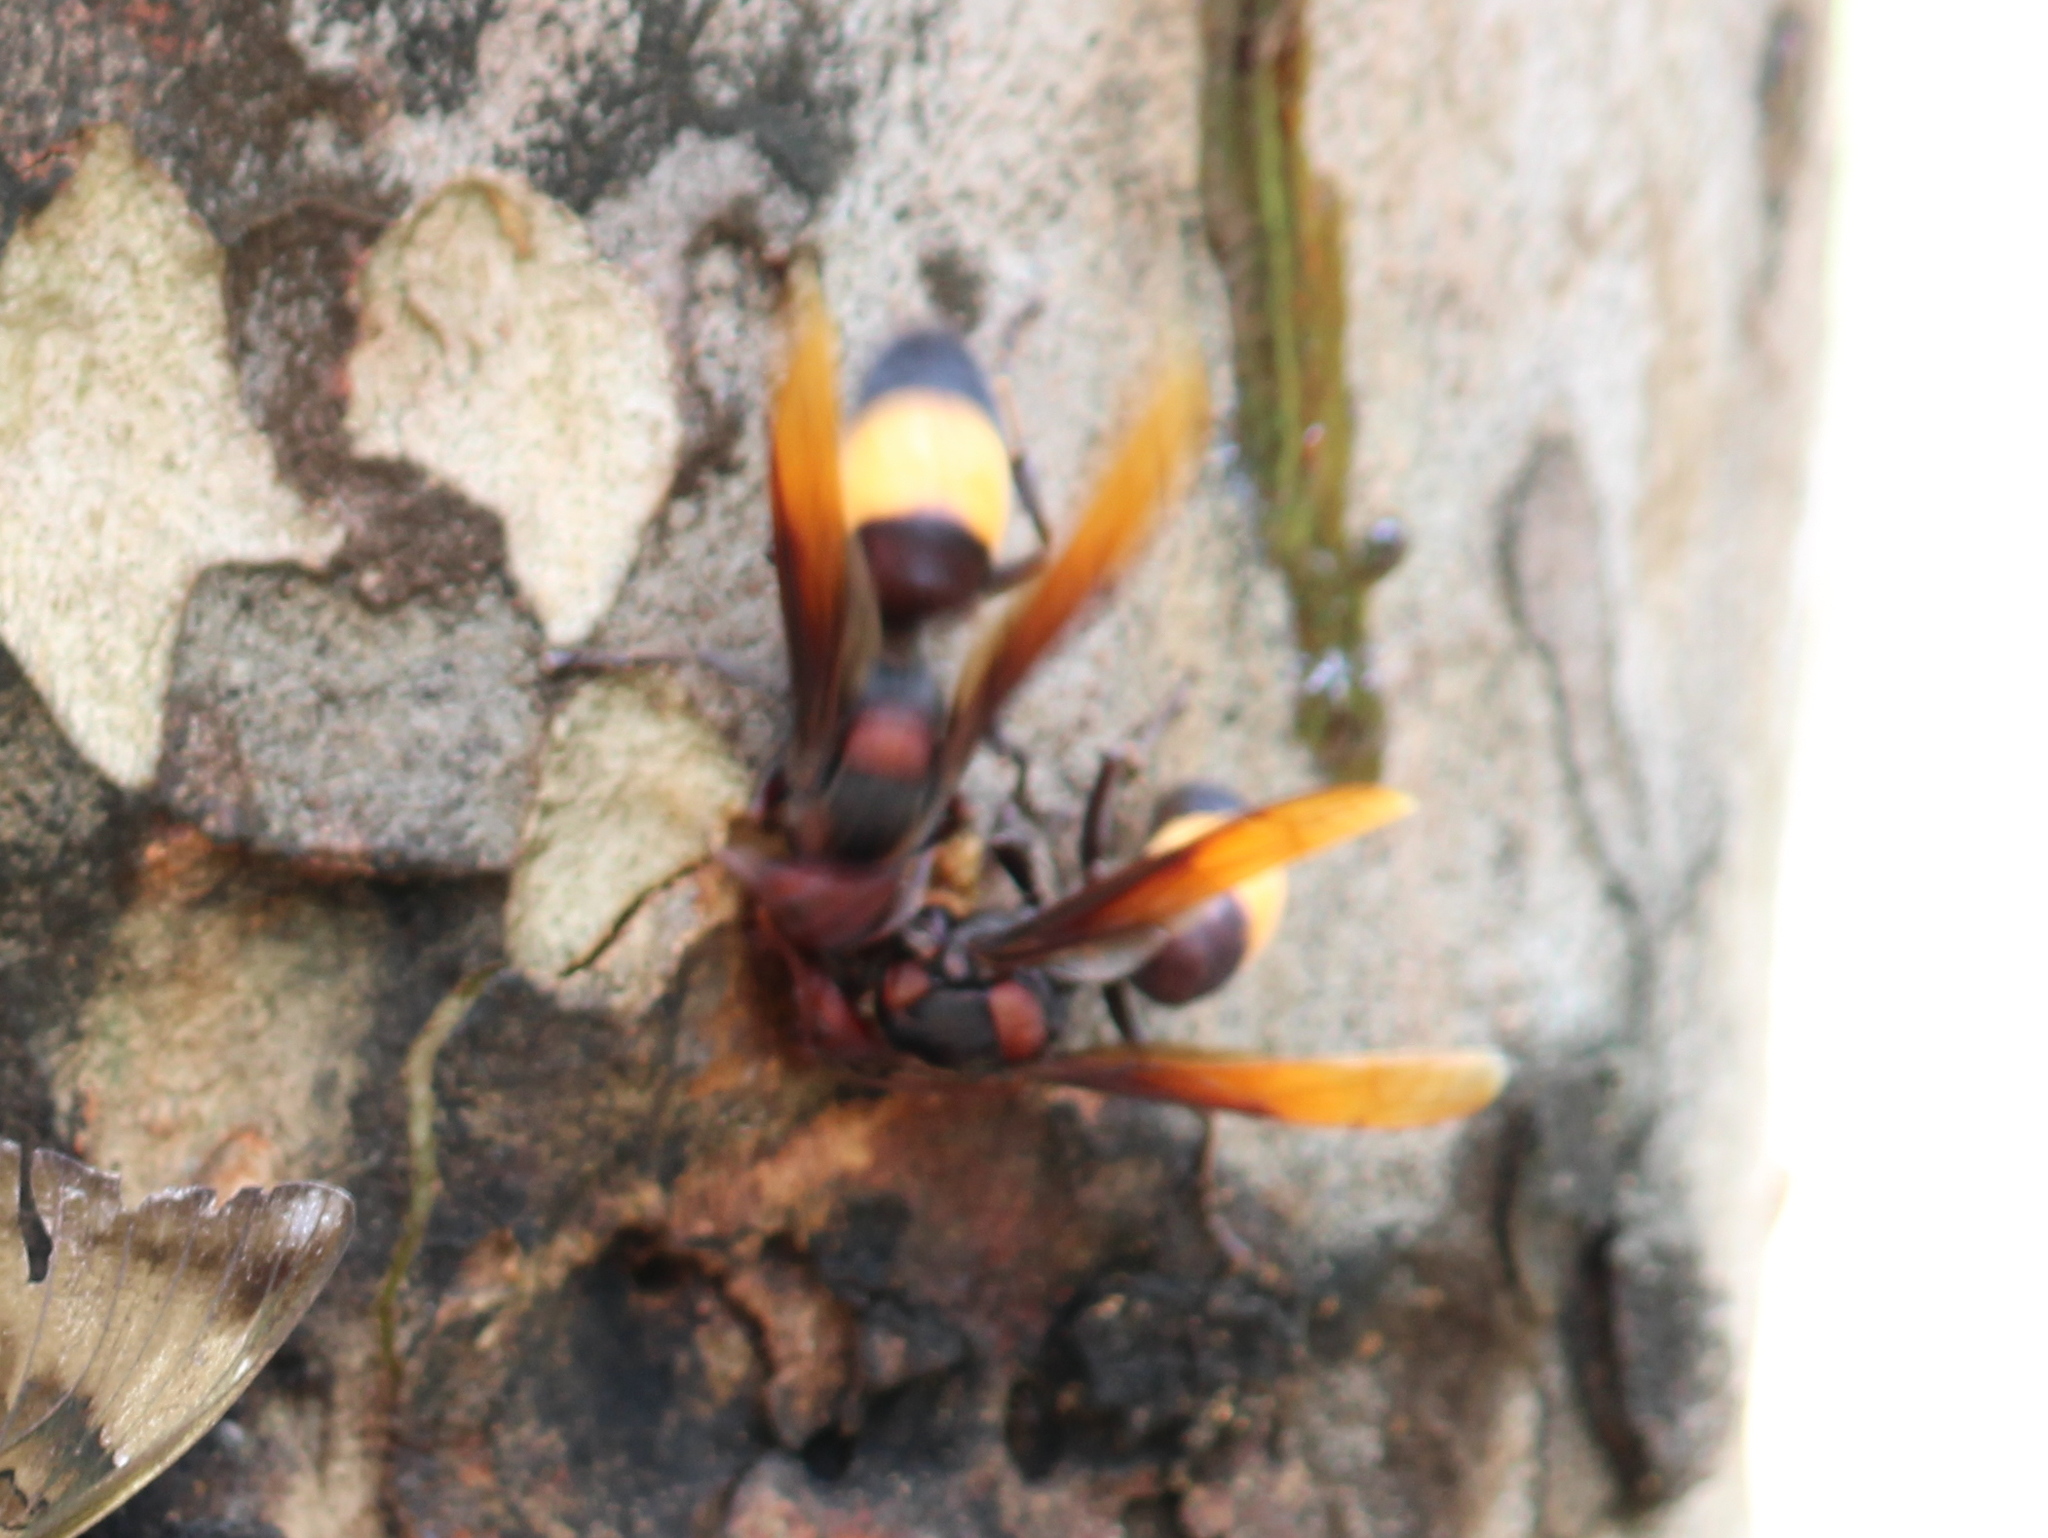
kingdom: Animalia
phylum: Arthropoda
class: Insecta
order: Hymenoptera
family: Vespidae
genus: Vespa
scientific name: Vespa tropica
